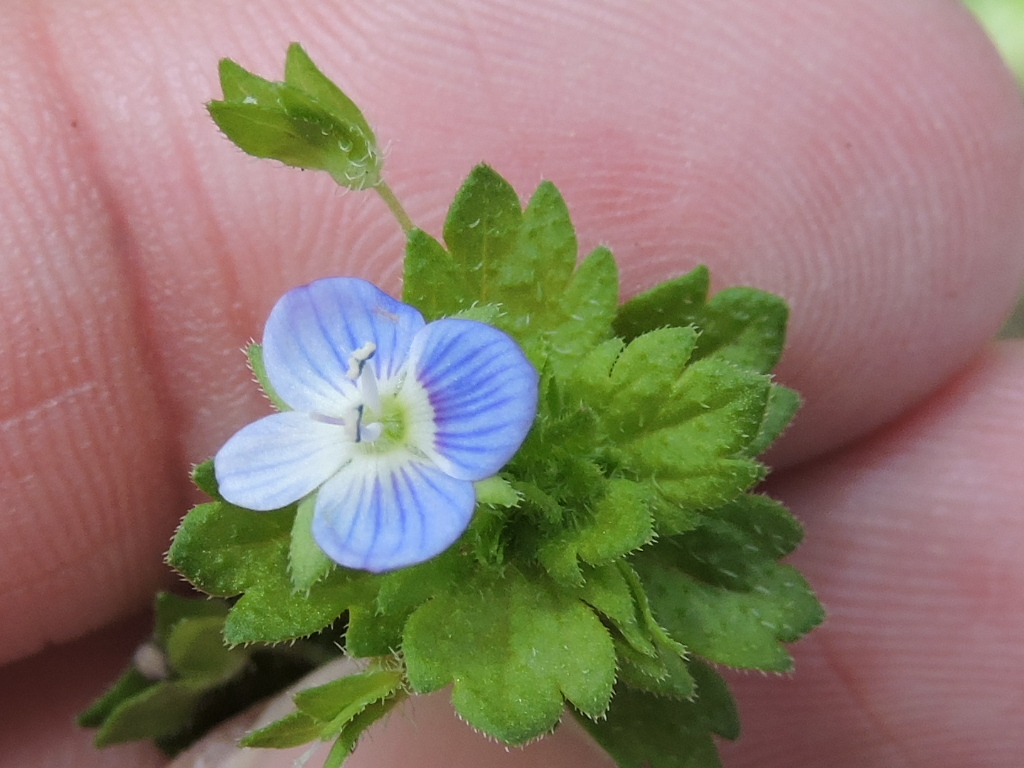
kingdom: Plantae
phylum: Tracheophyta
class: Magnoliopsida
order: Lamiales
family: Plantaginaceae
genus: Veronica
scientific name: Veronica persica
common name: Common field-speedwell
